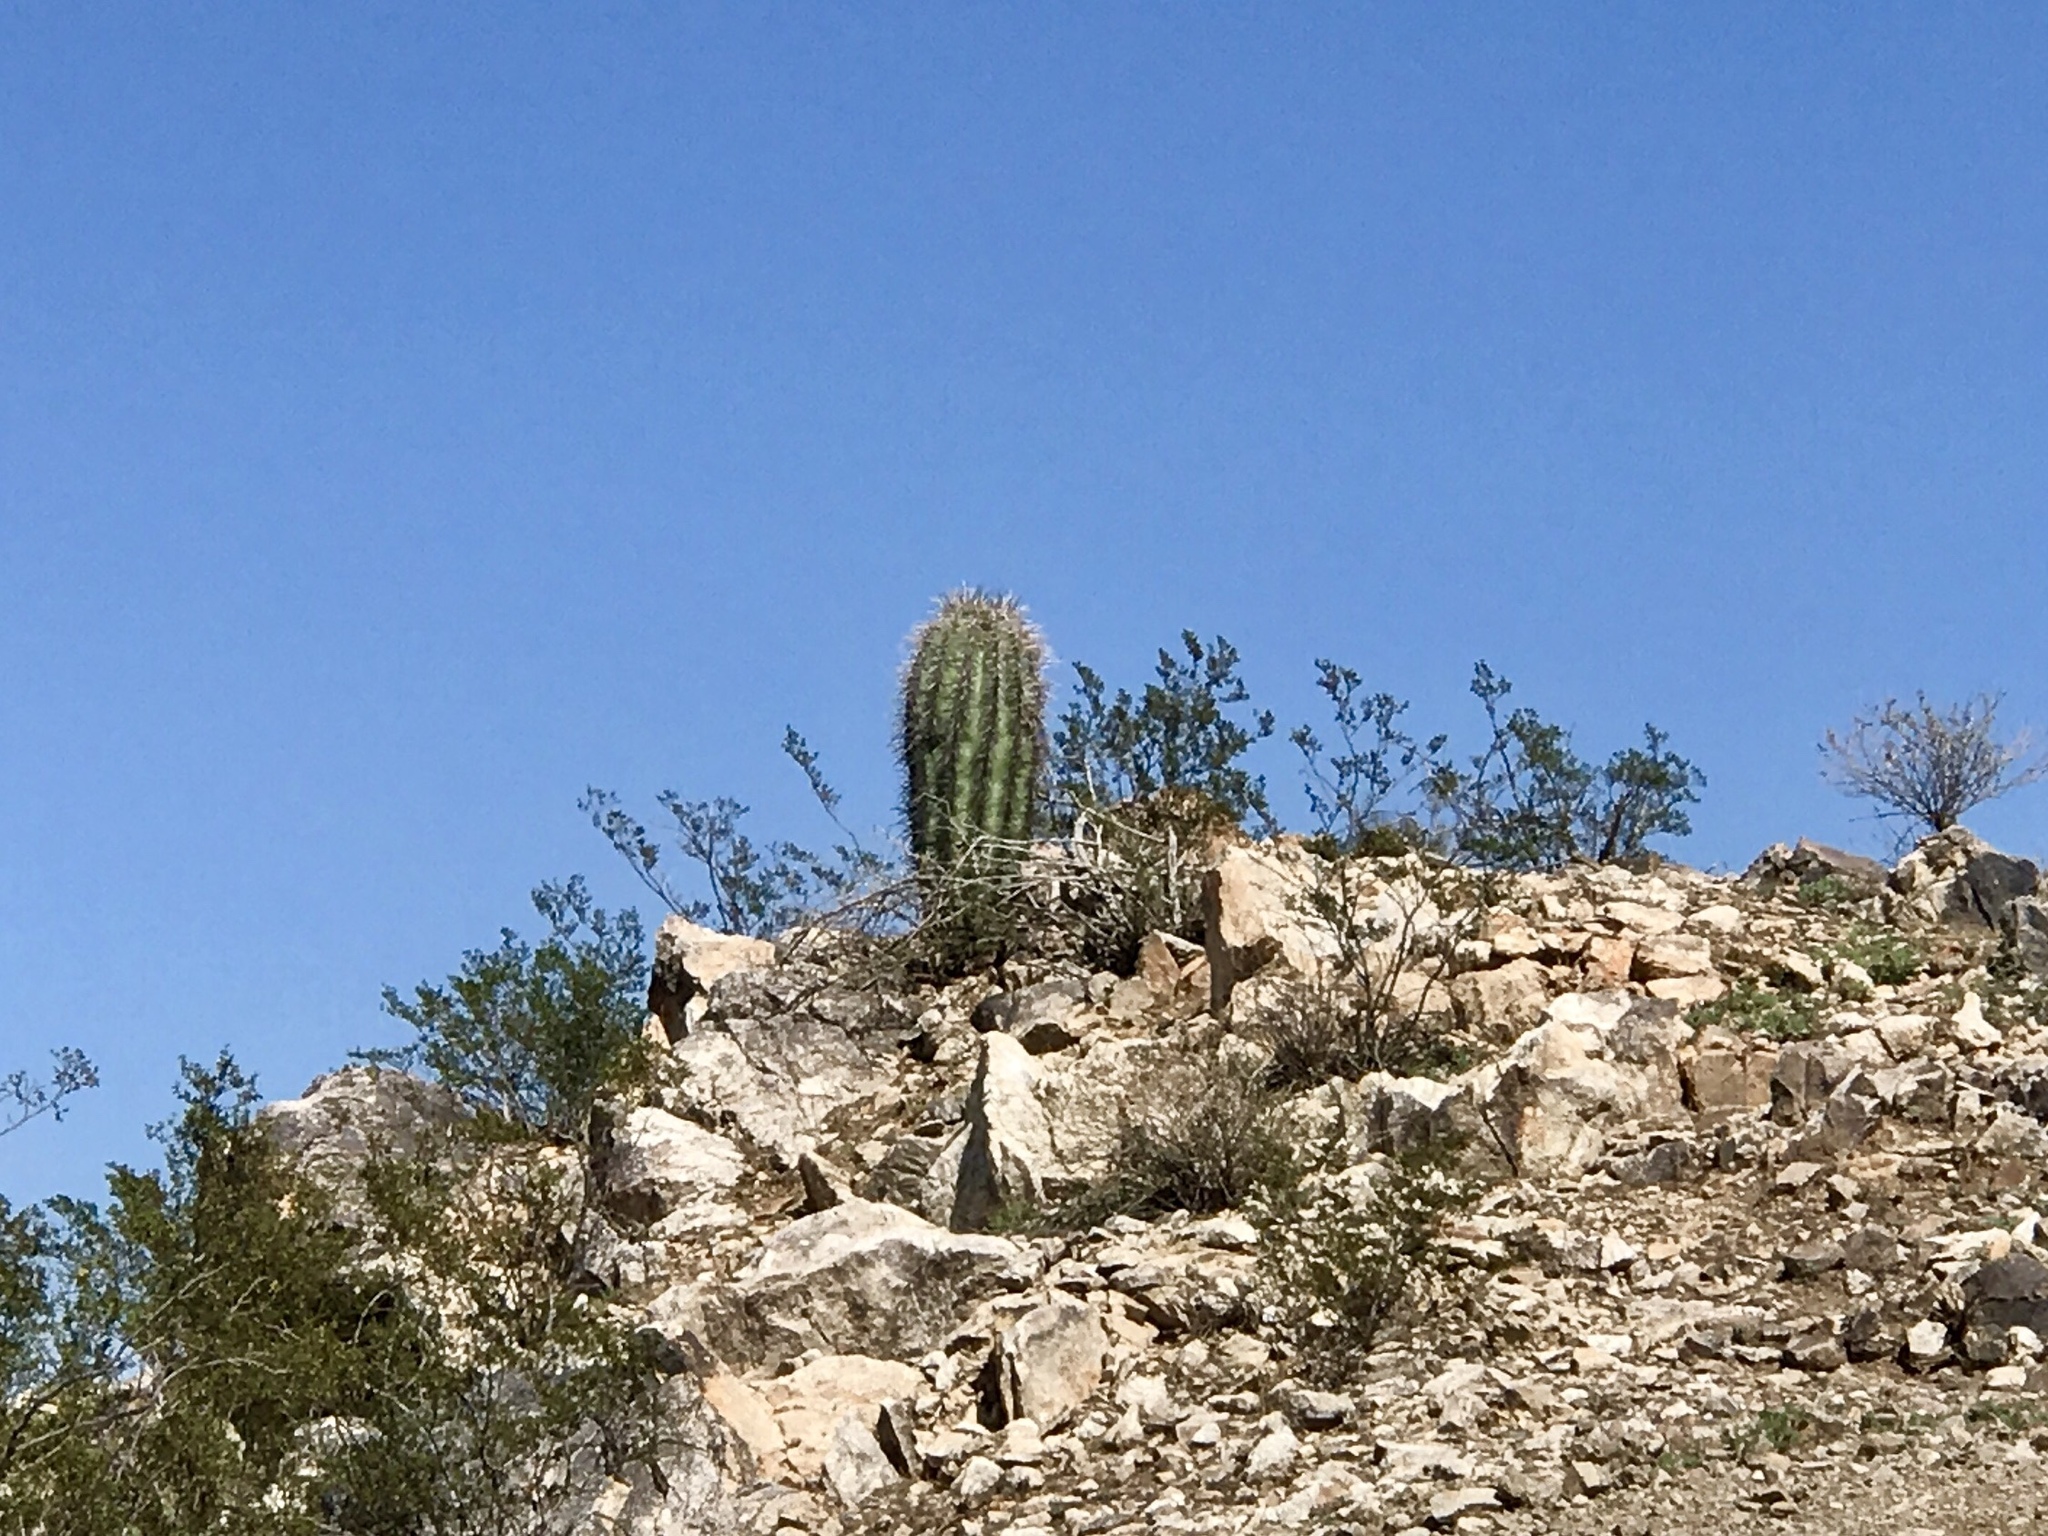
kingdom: Plantae
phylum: Tracheophyta
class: Magnoliopsida
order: Caryophyllales
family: Cactaceae
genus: Carnegiea
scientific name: Carnegiea gigantea
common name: Saguaro
